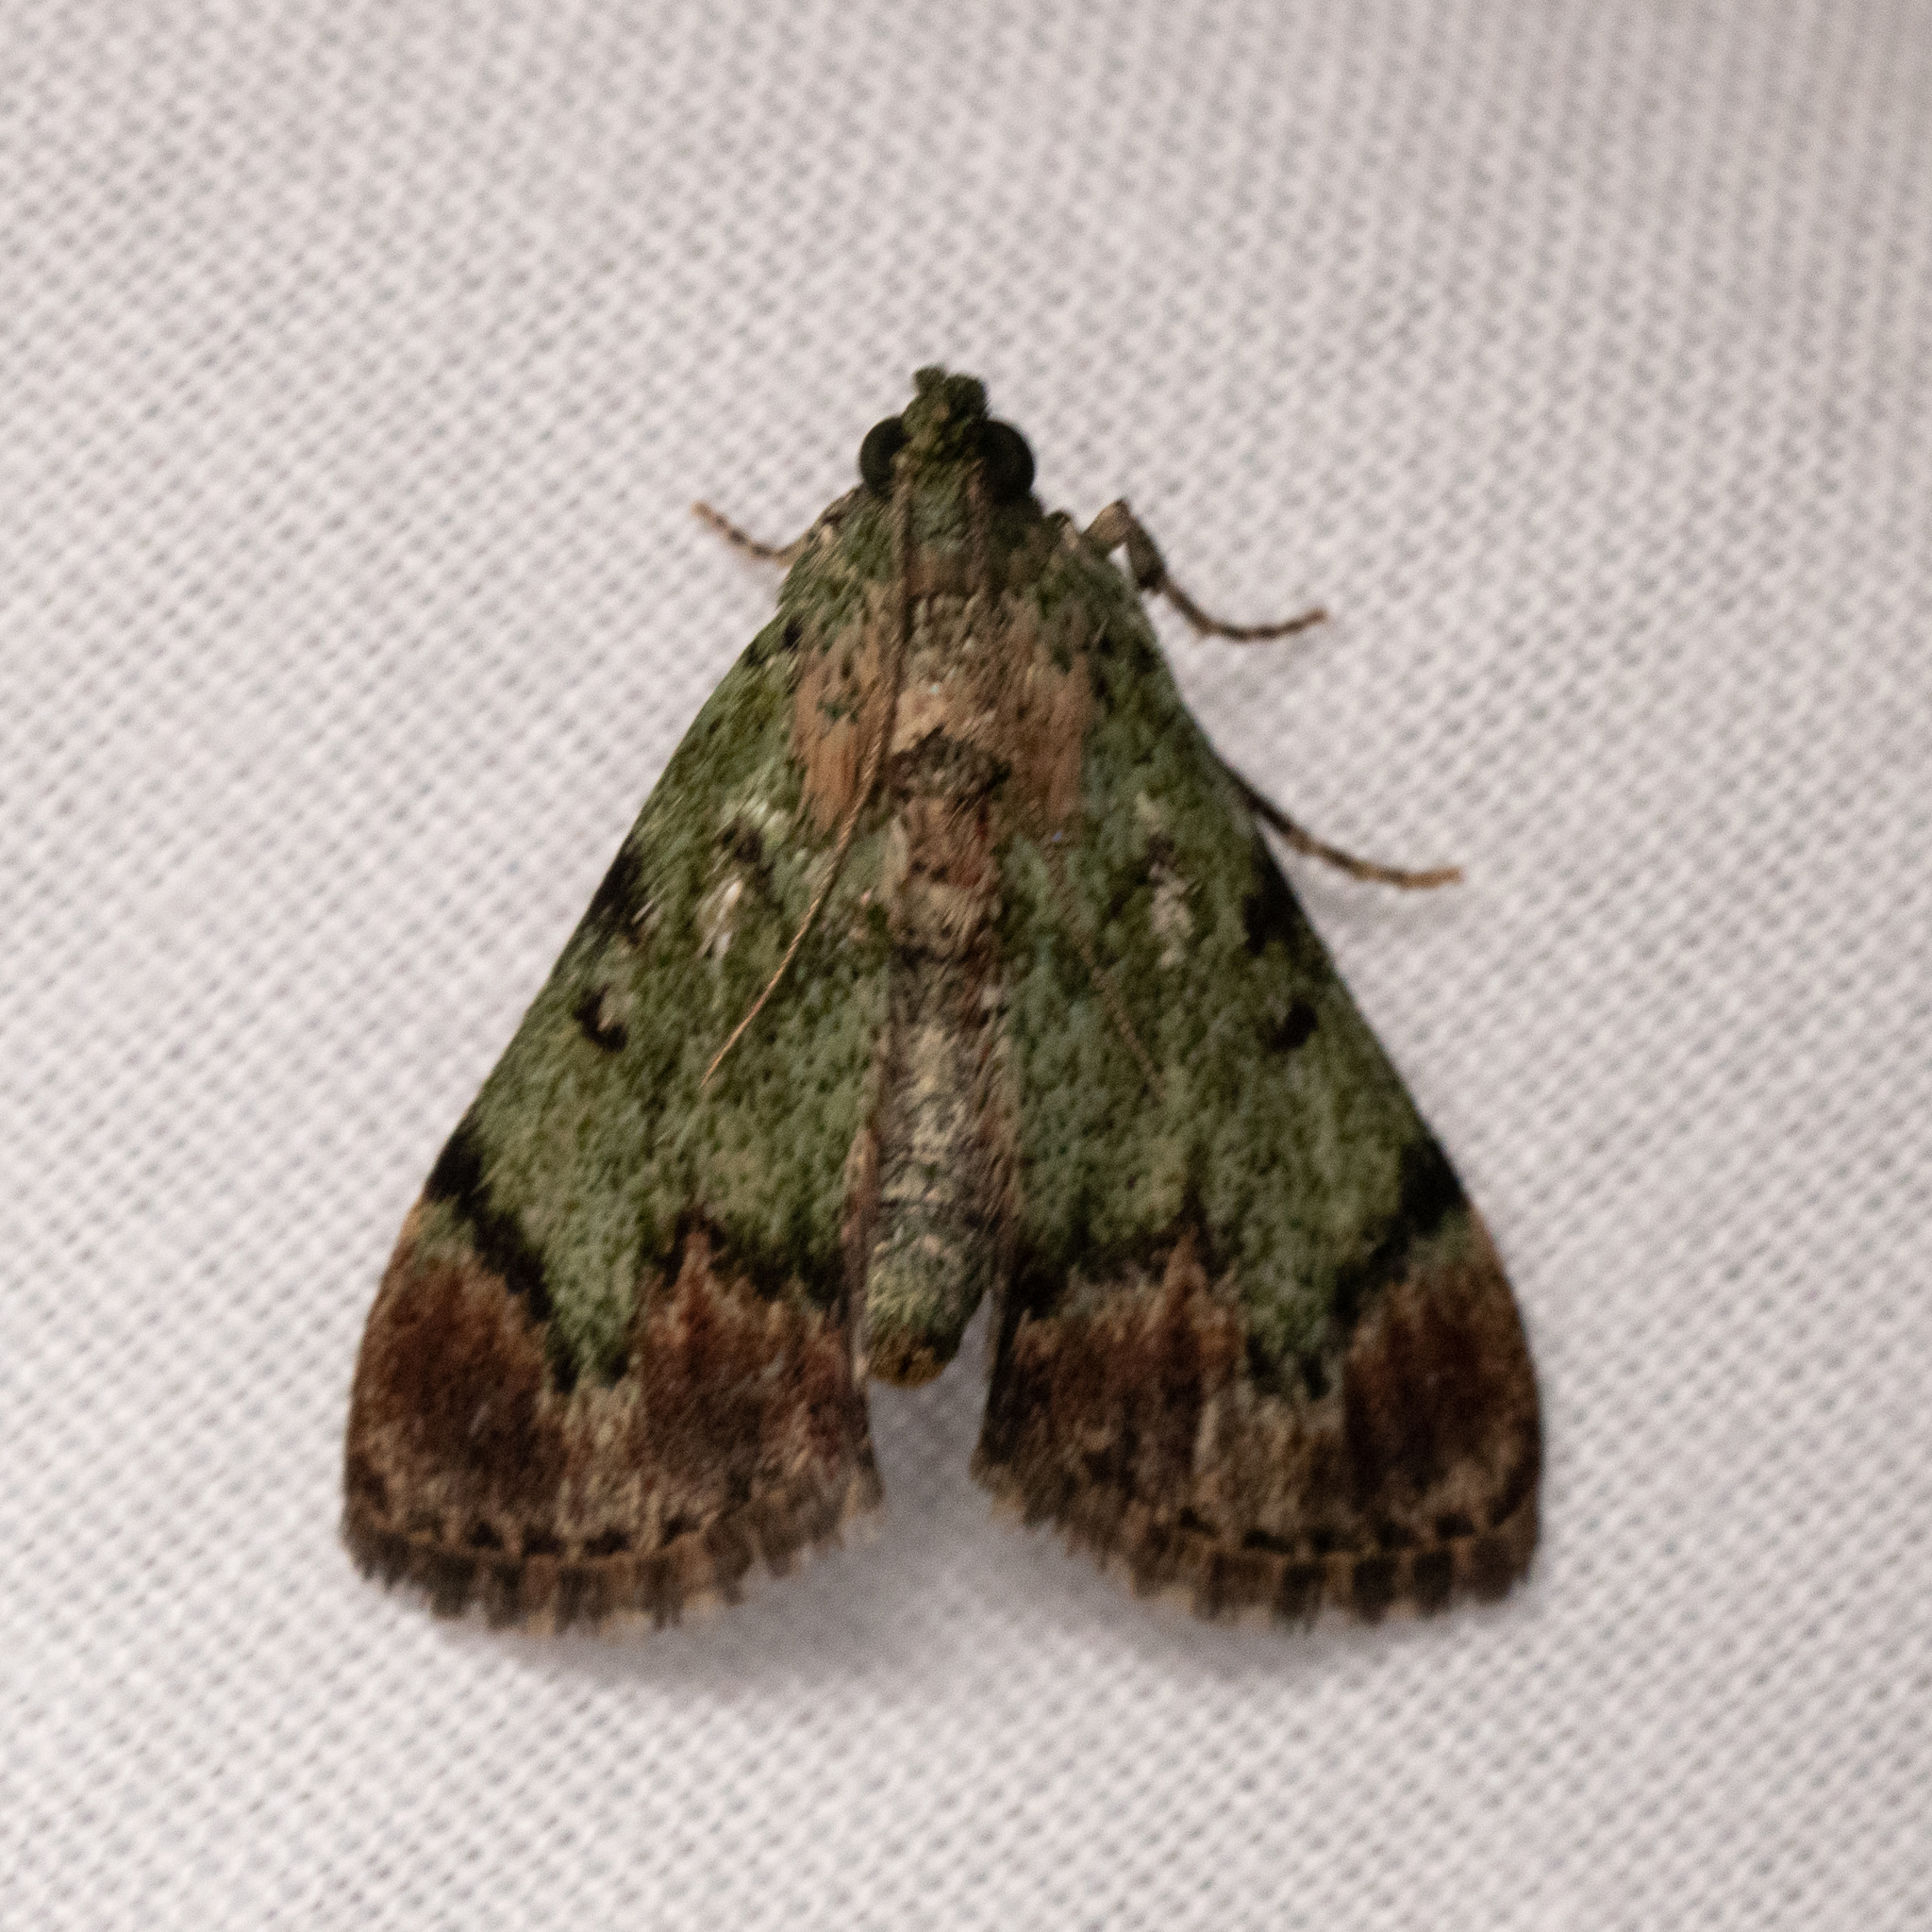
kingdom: Animalia
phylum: Arthropoda
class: Insecta
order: Lepidoptera
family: Pyralidae
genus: Epipaschia
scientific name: Epipaschia superatalis
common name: Dimorphic macalla moth
